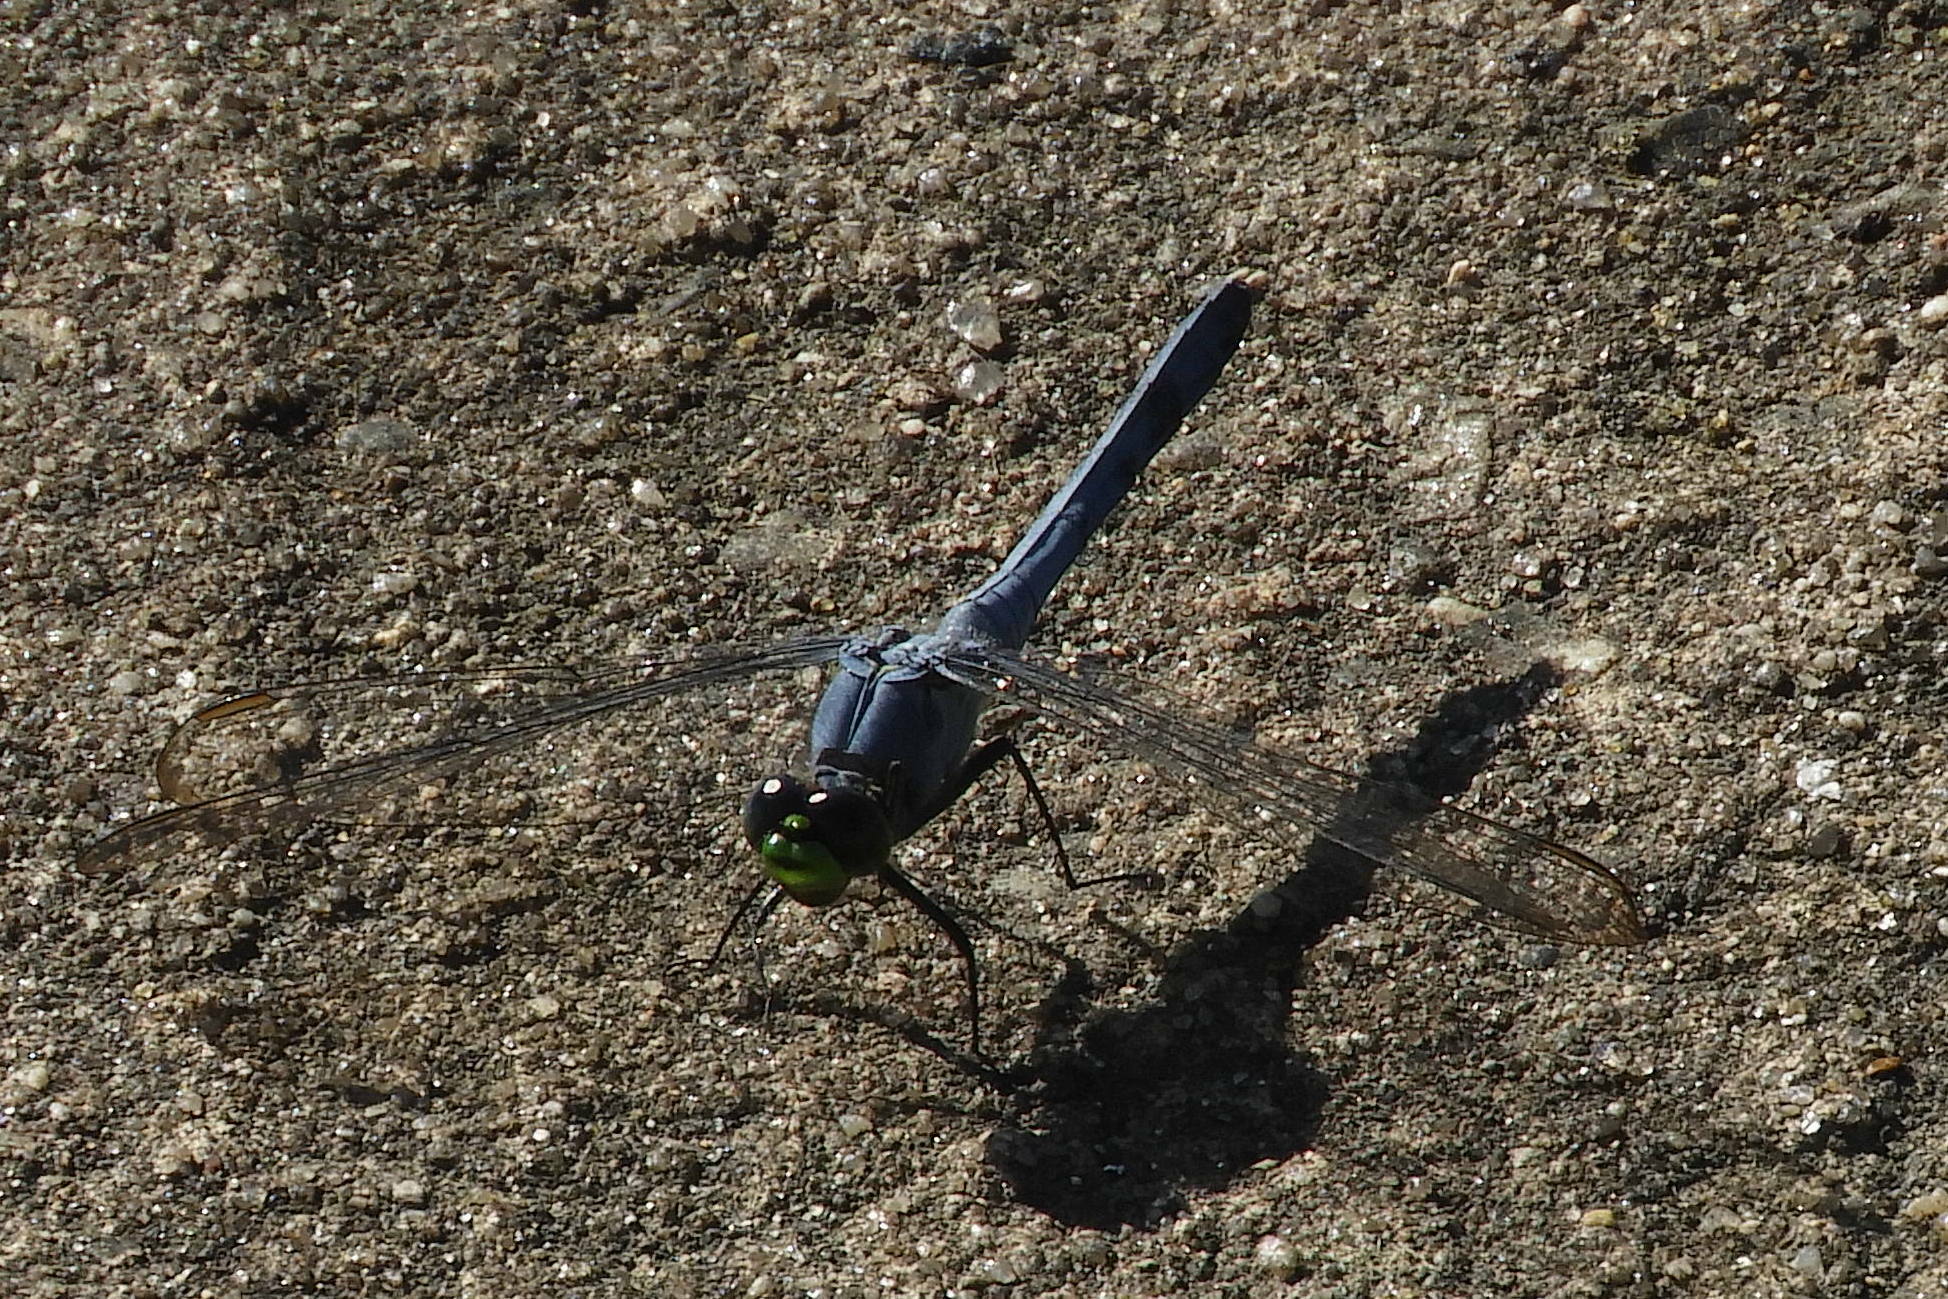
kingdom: Animalia
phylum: Arthropoda
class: Insecta
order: Odonata
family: Libellulidae
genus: Erythemis
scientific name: Erythemis simplicicollis
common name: Eastern pondhawk
